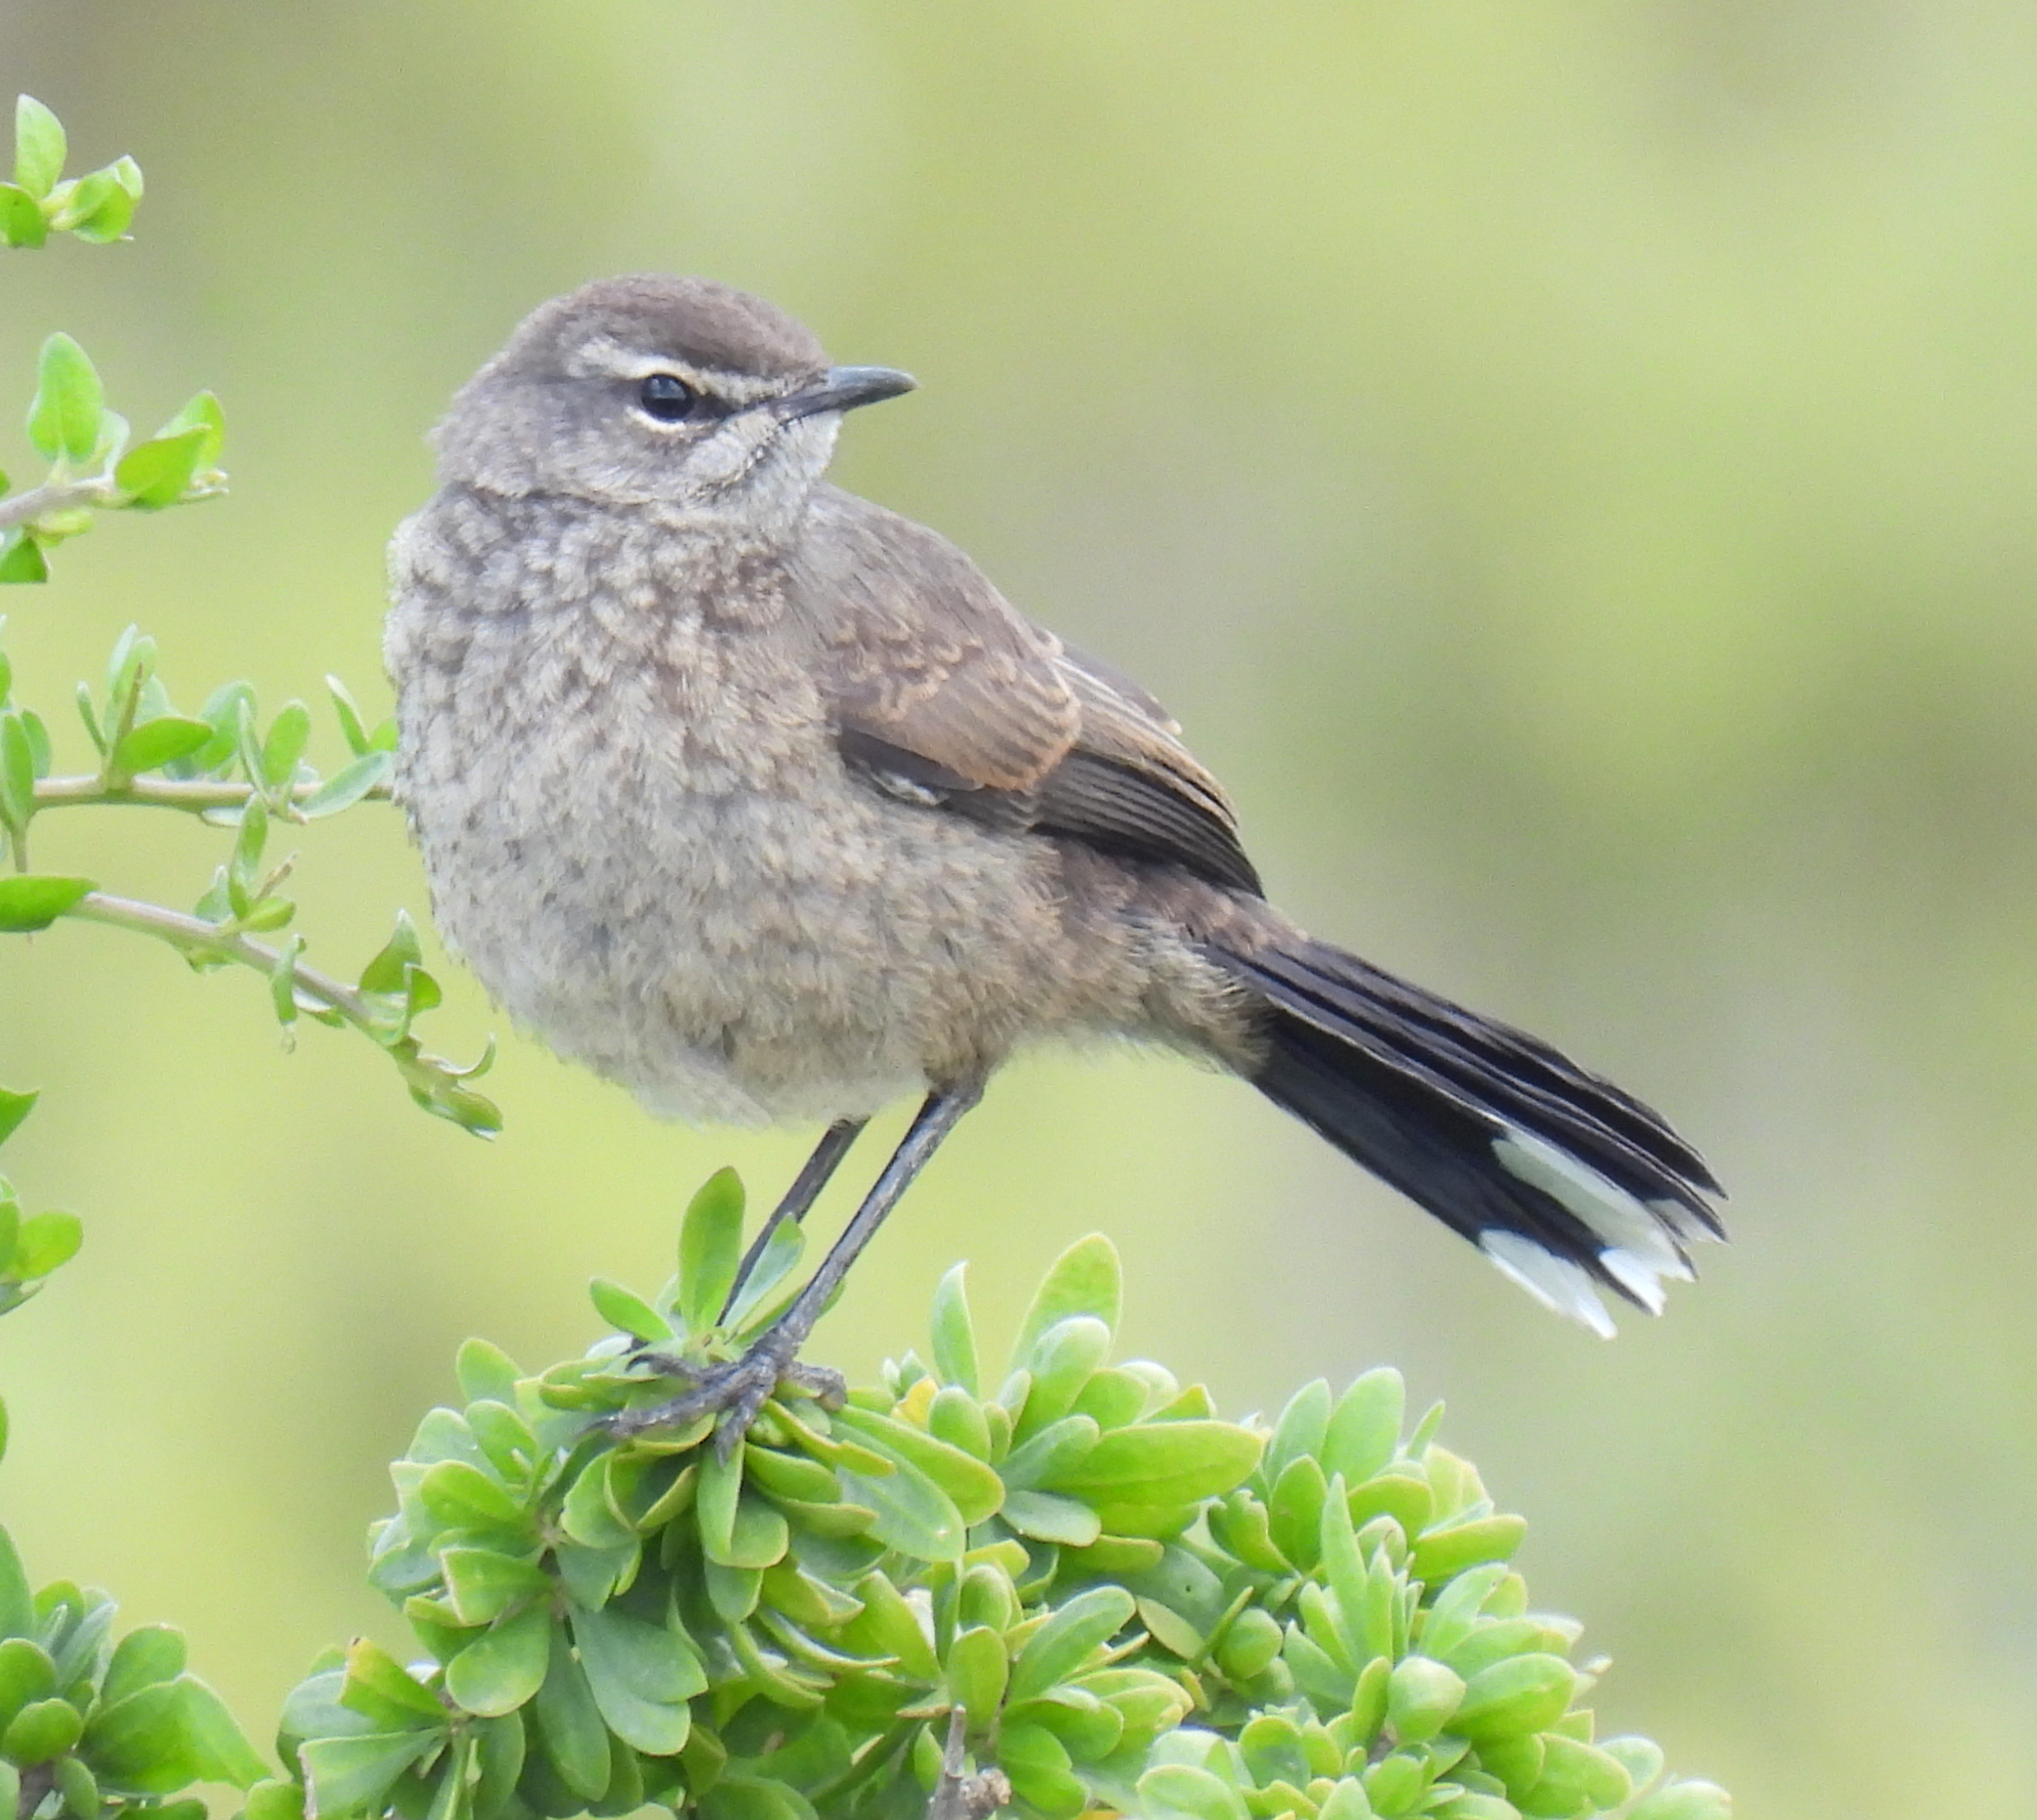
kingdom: Animalia
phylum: Chordata
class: Aves
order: Passeriformes
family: Muscicapidae
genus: Erythropygia
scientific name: Erythropygia coryphoeus
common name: Karoo scrub robin
